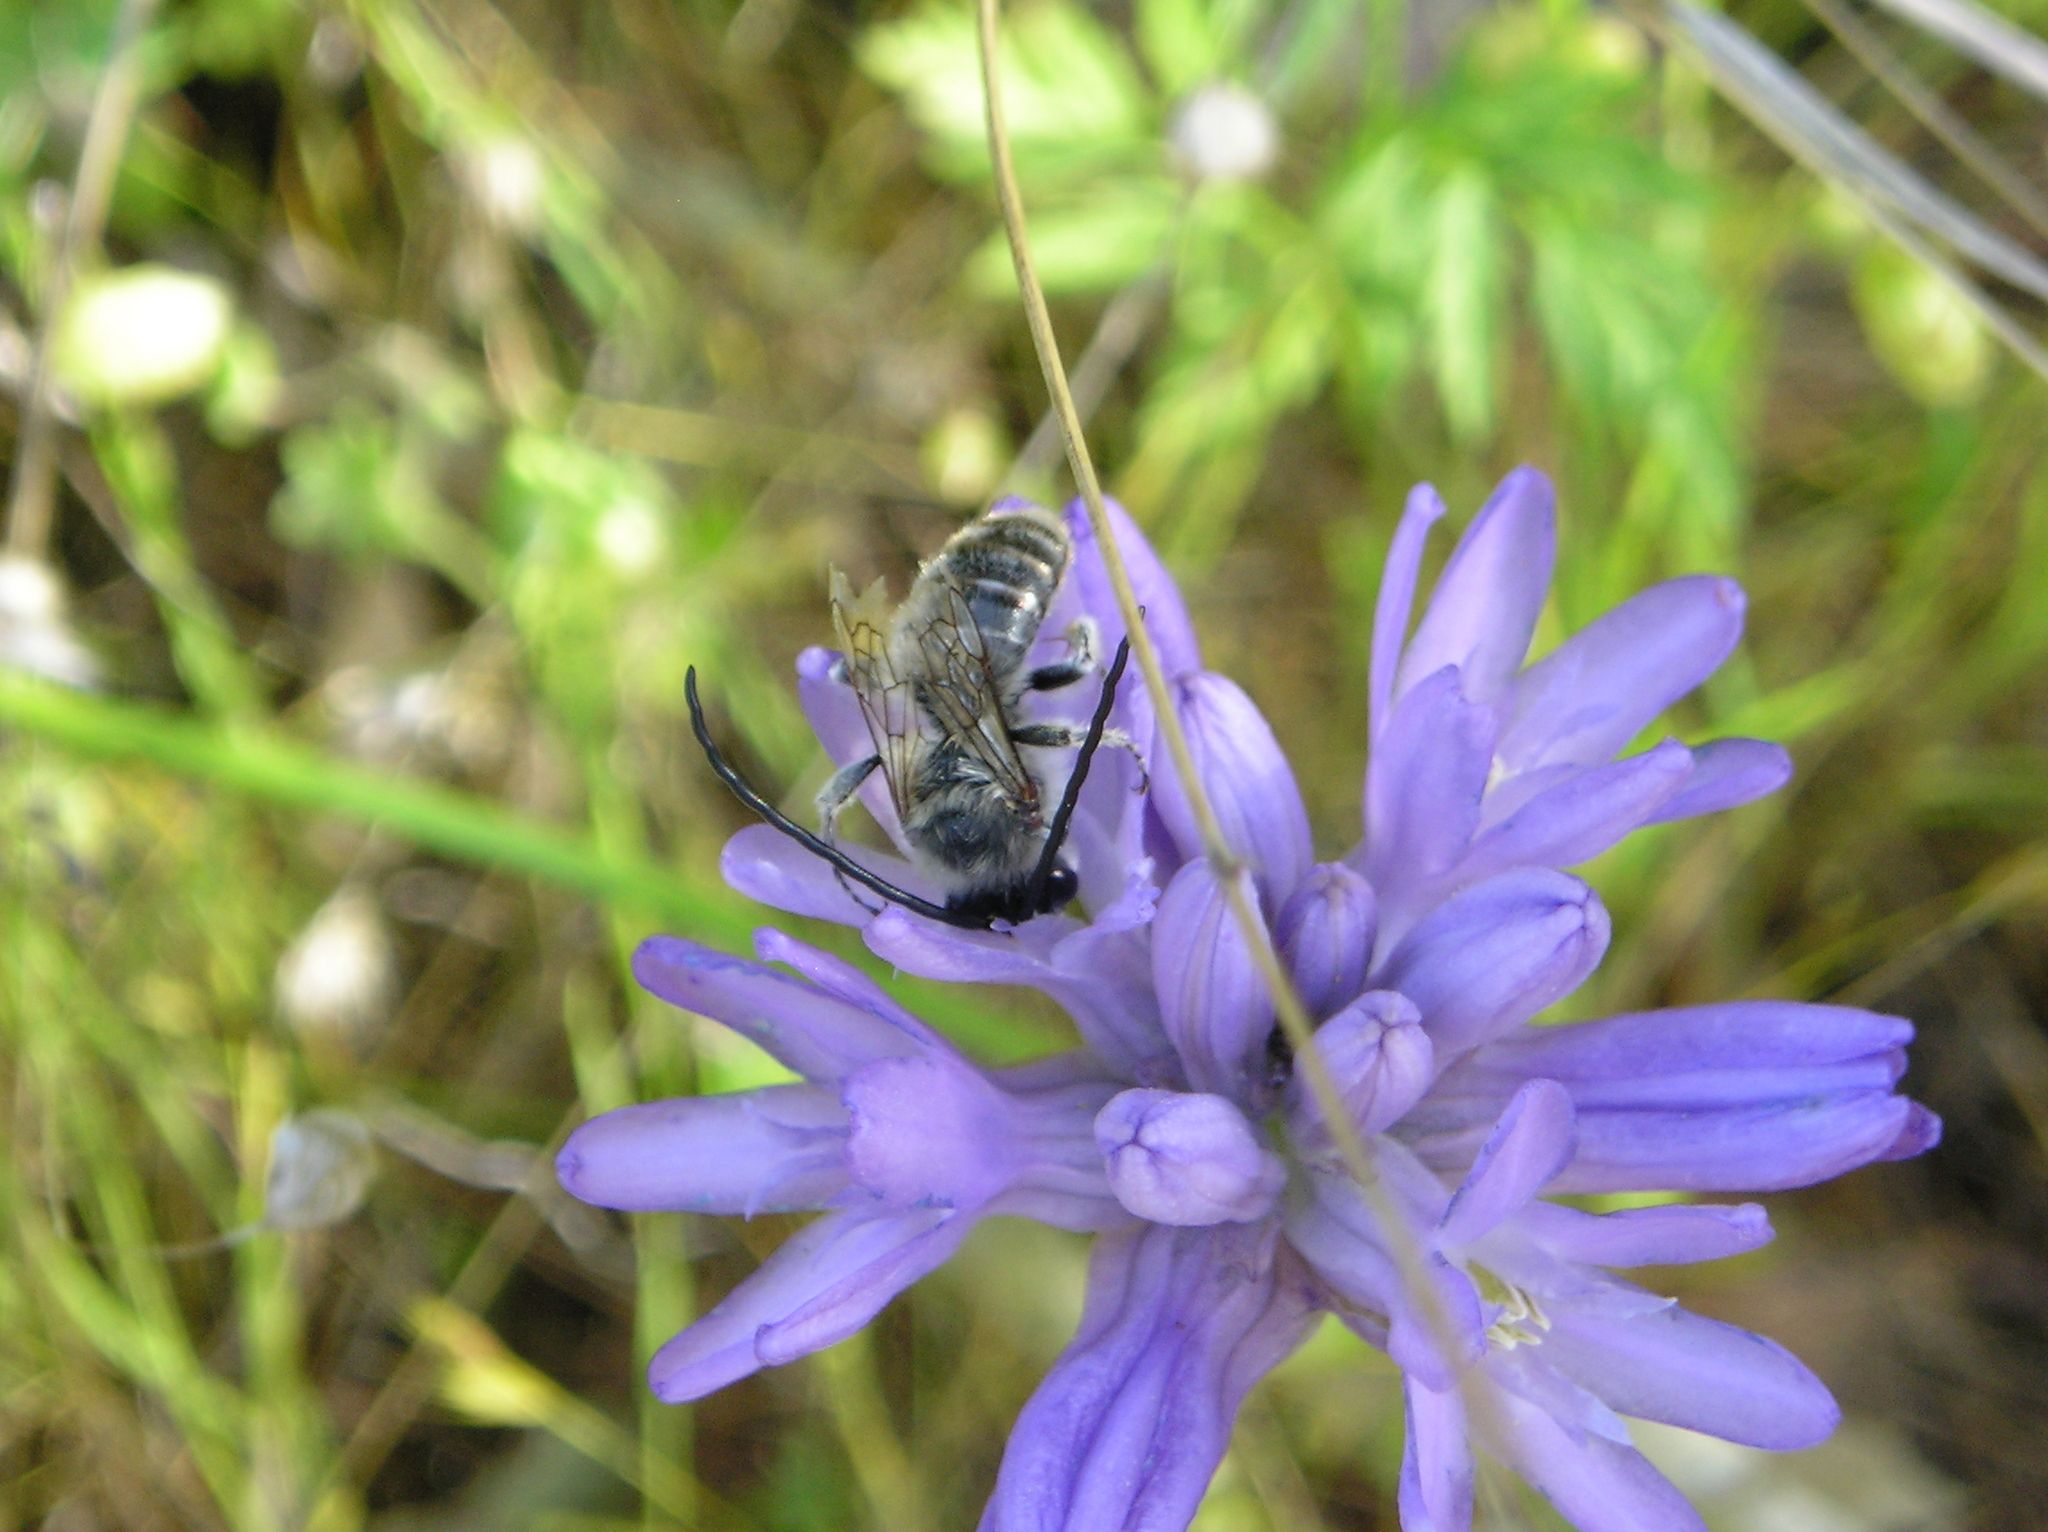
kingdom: Plantae
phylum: Tracheophyta
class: Liliopsida
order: Asparagales
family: Asparagaceae
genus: Dichelostemma
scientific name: Dichelostemma congestum
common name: Fork-tooth ookow
